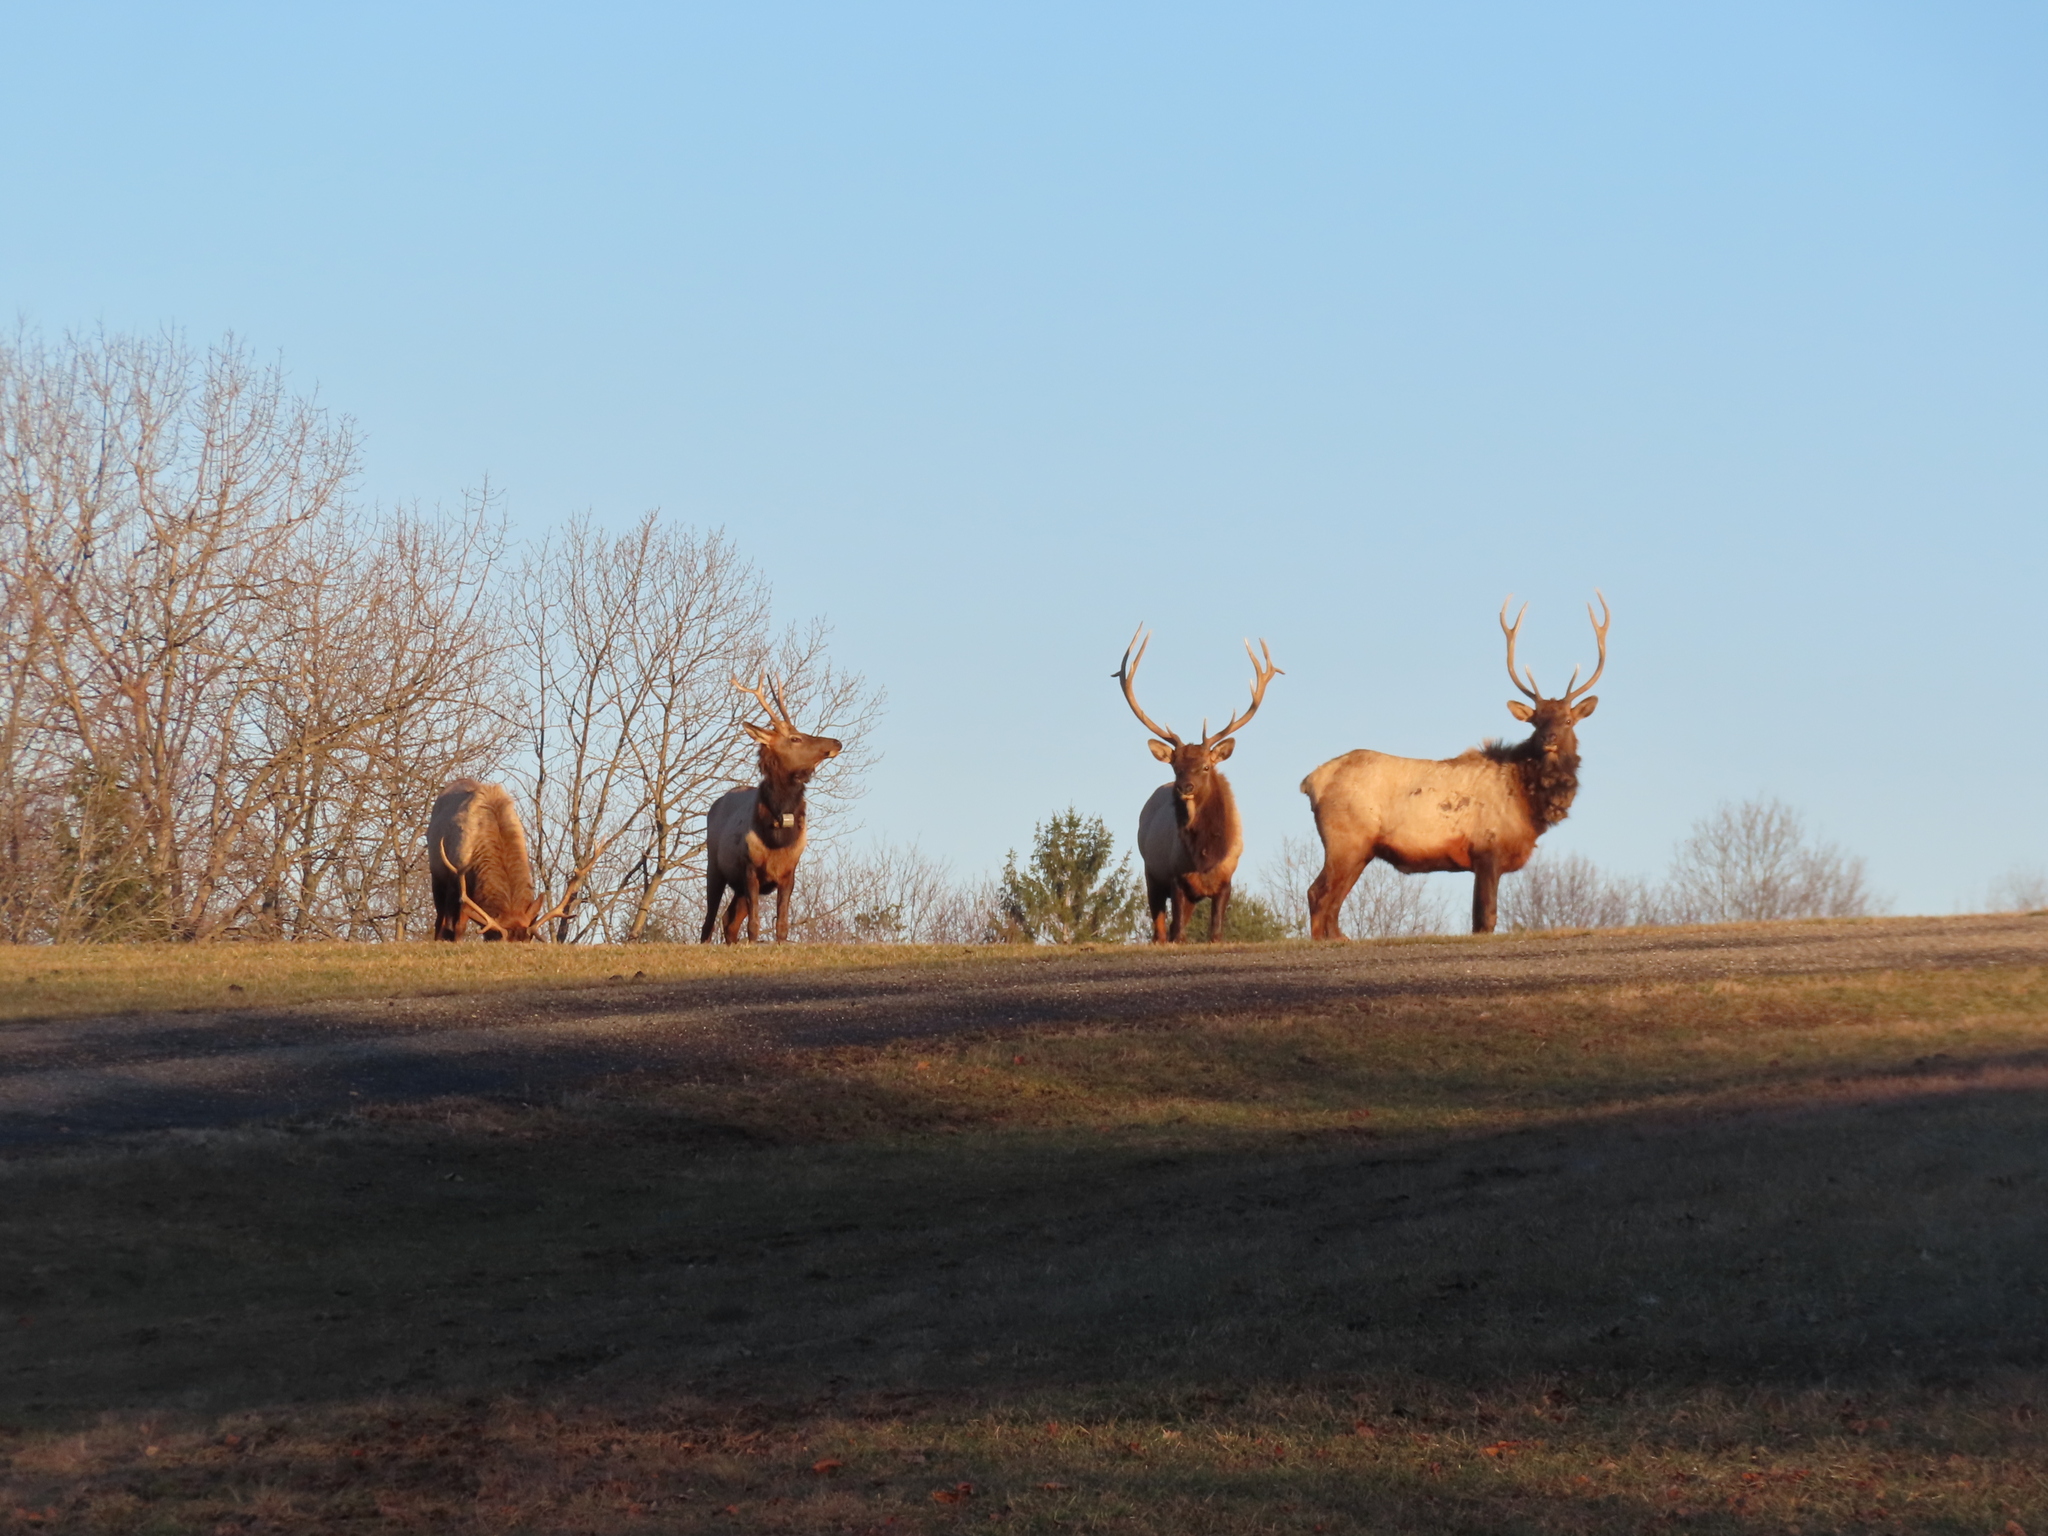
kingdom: Animalia
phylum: Chordata
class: Mammalia
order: Artiodactyla
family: Cervidae
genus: Cervus
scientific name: Cervus elaphus
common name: Red deer
